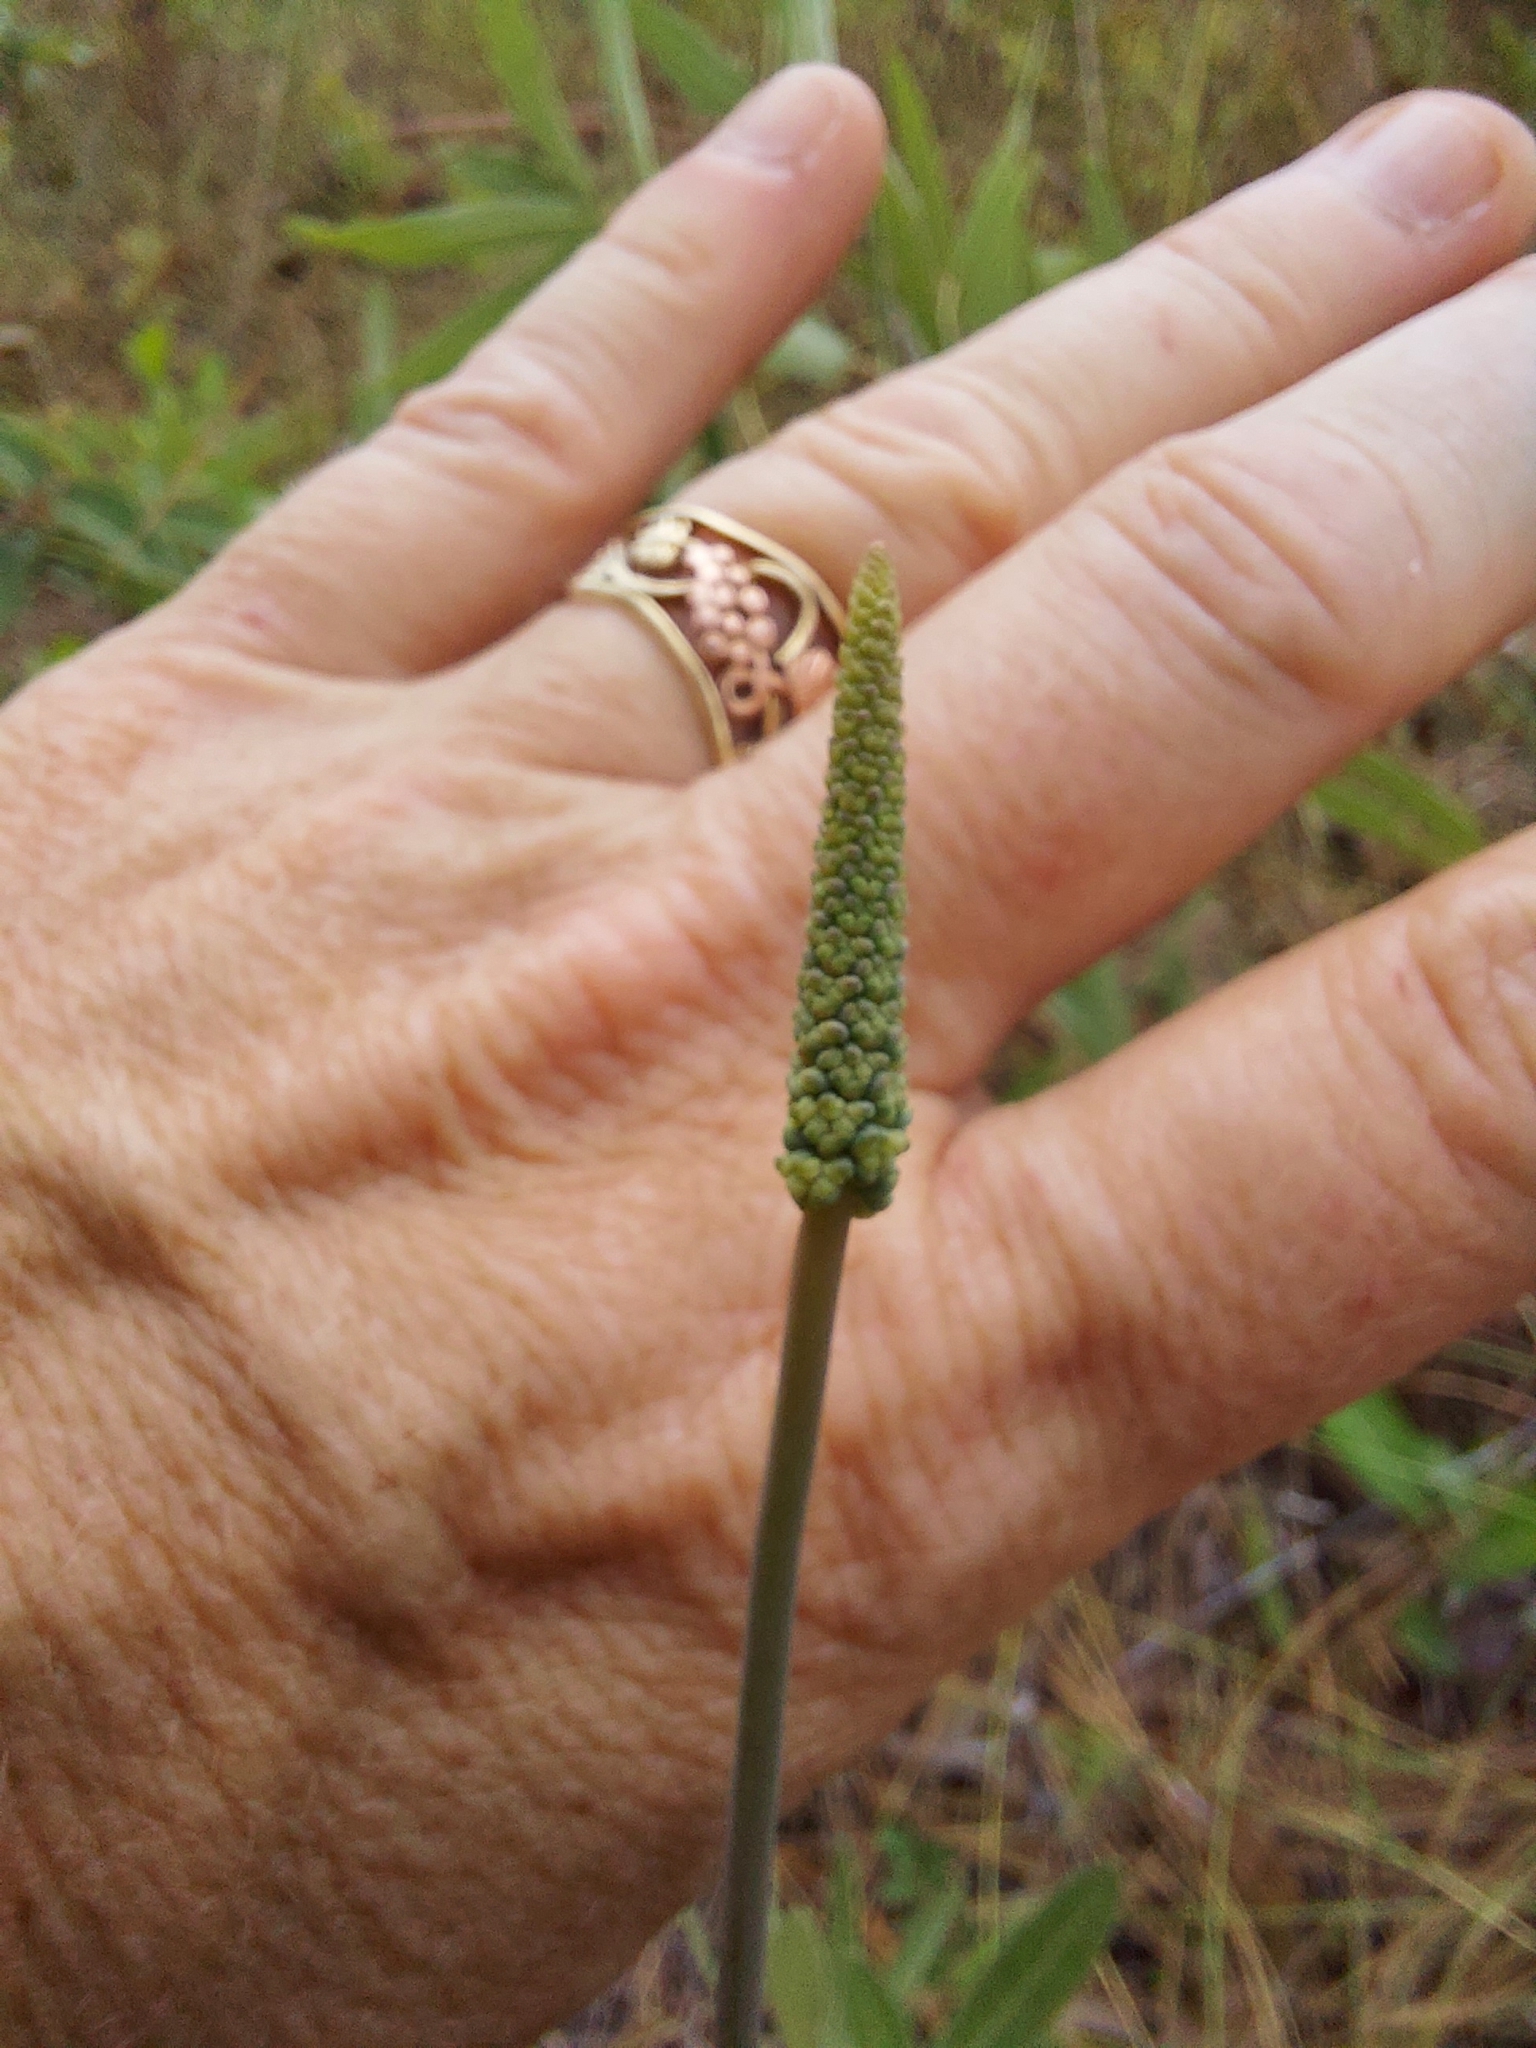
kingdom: Plantae
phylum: Tracheophyta
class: Liliopsida
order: Liliales
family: Melanthiaceae
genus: Schoenocaulon
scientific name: Schoenocaulon dubium
